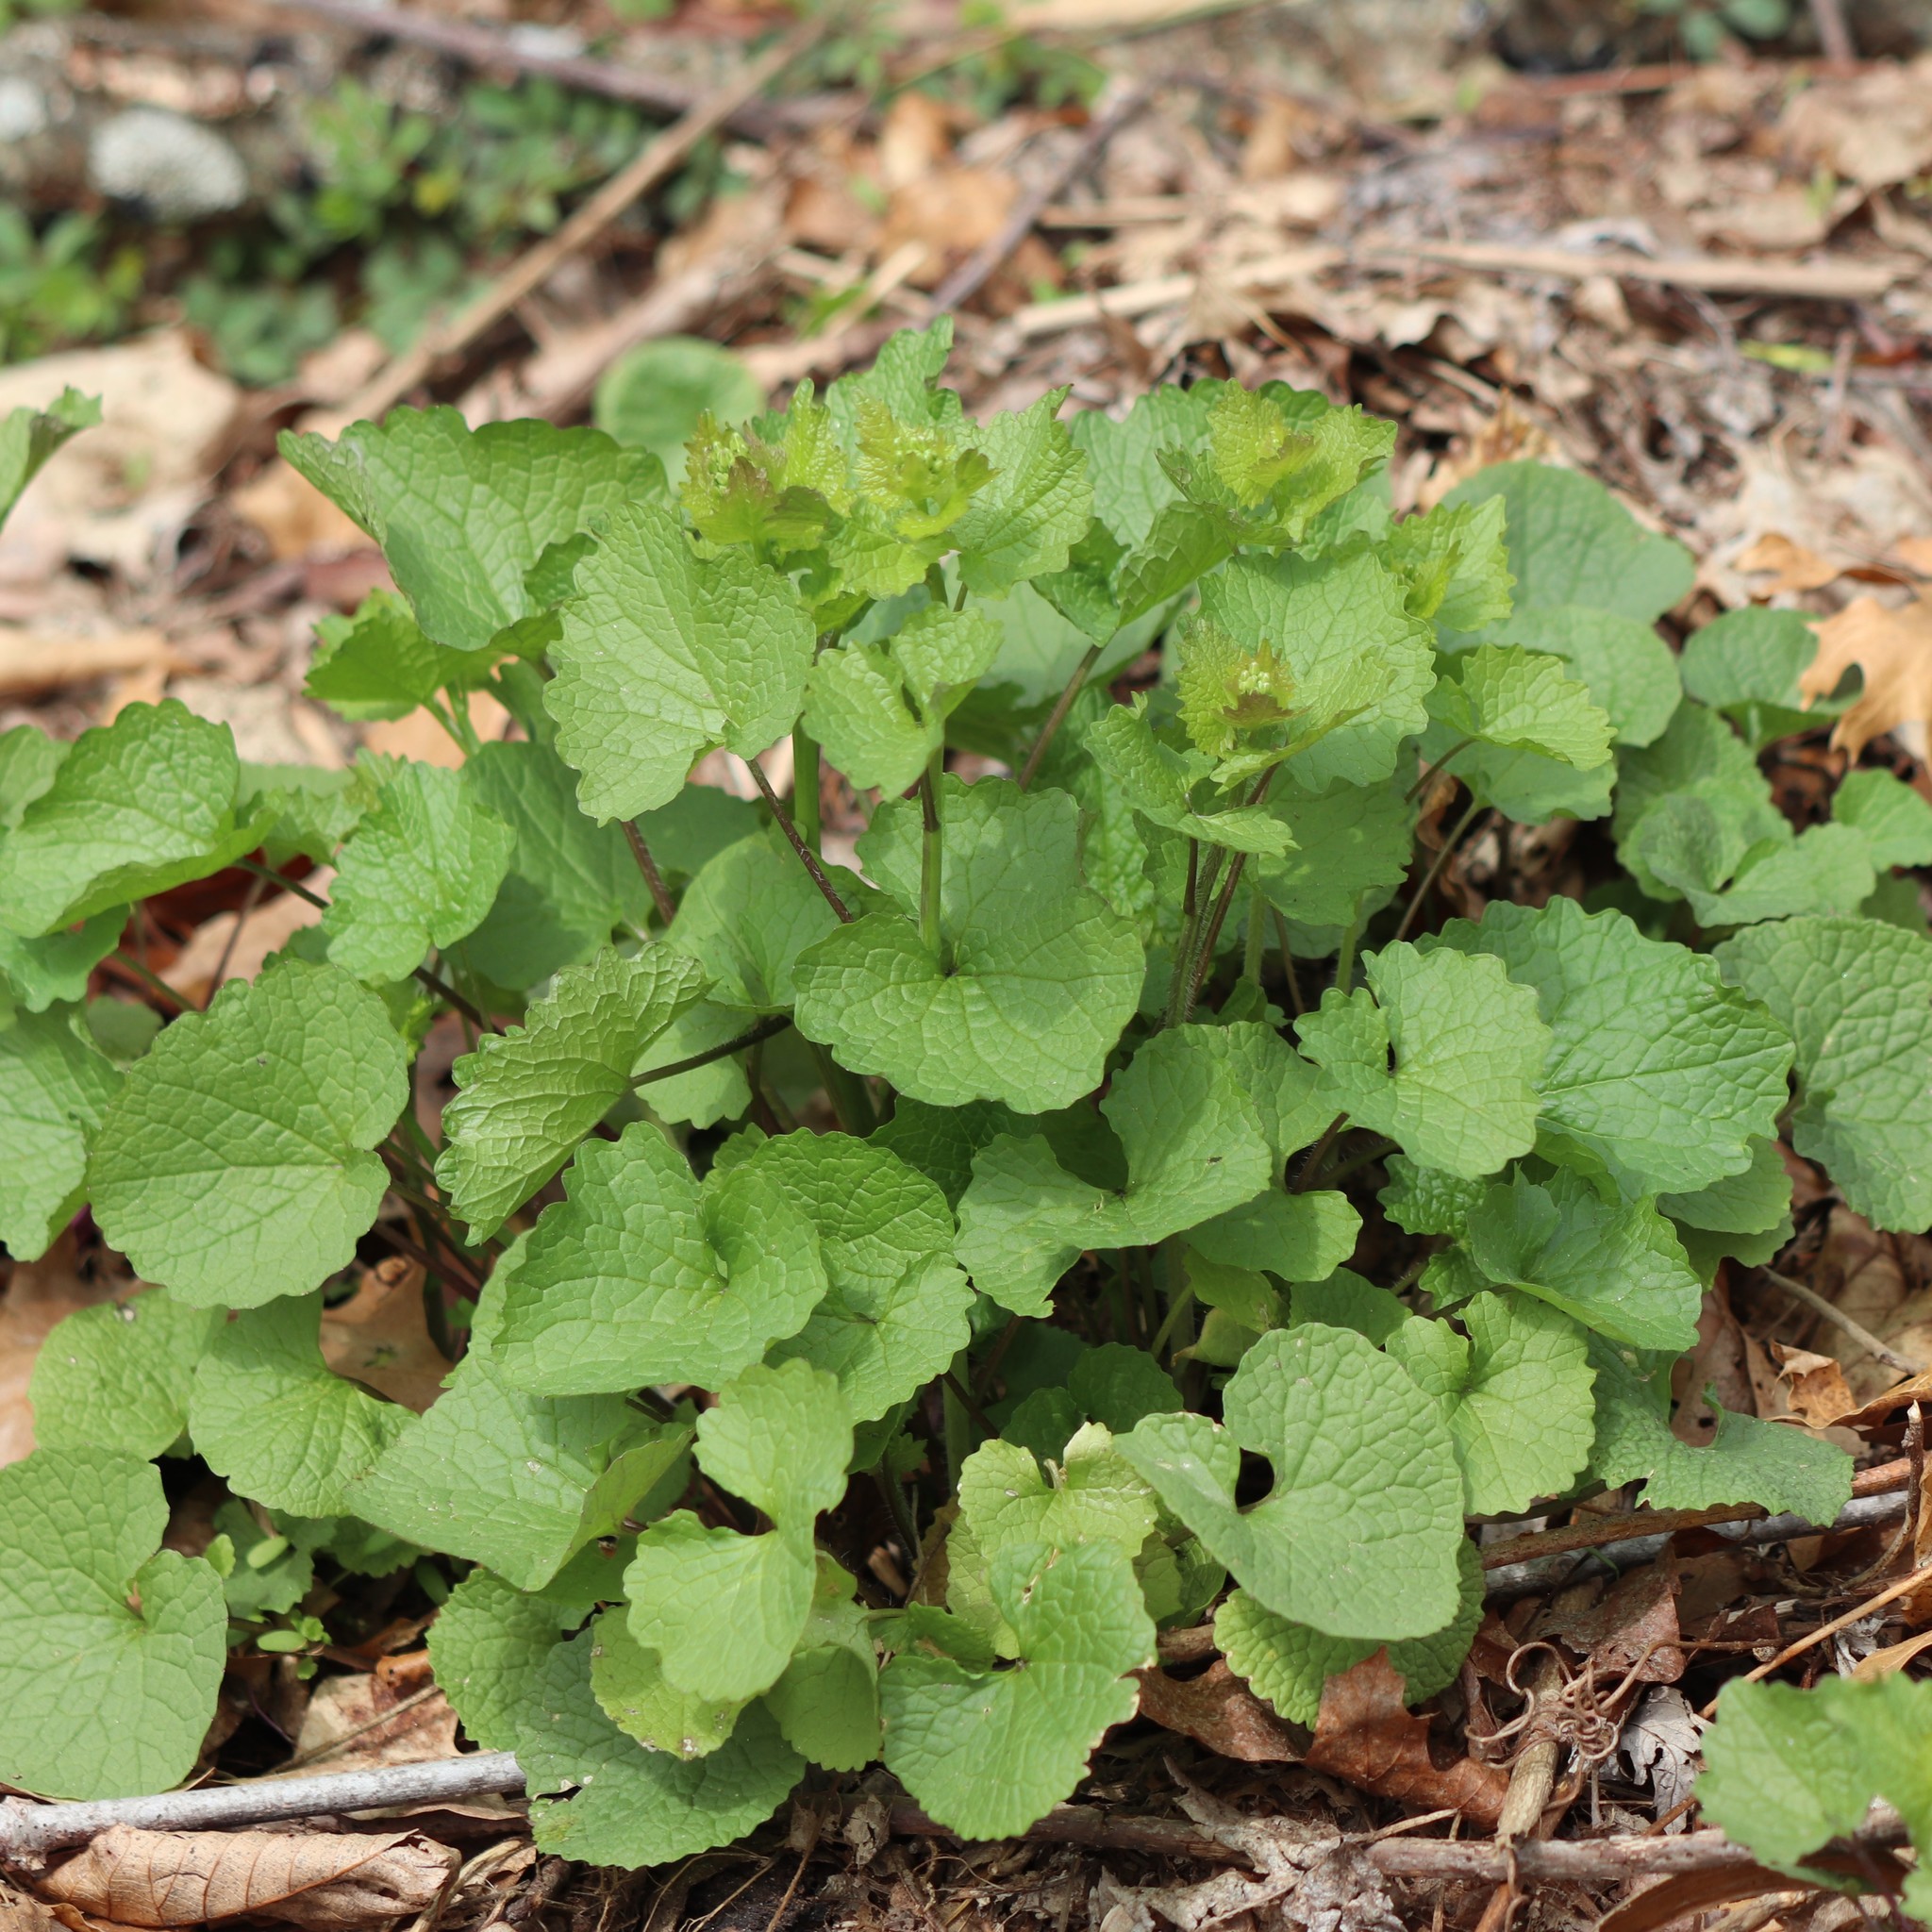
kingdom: Plantae
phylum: Tracheophyta
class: Magnoliopsida
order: Brassicales
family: Brassicaceae
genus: Alliaria
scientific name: Alliaria petiolata
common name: Garlic mustard
